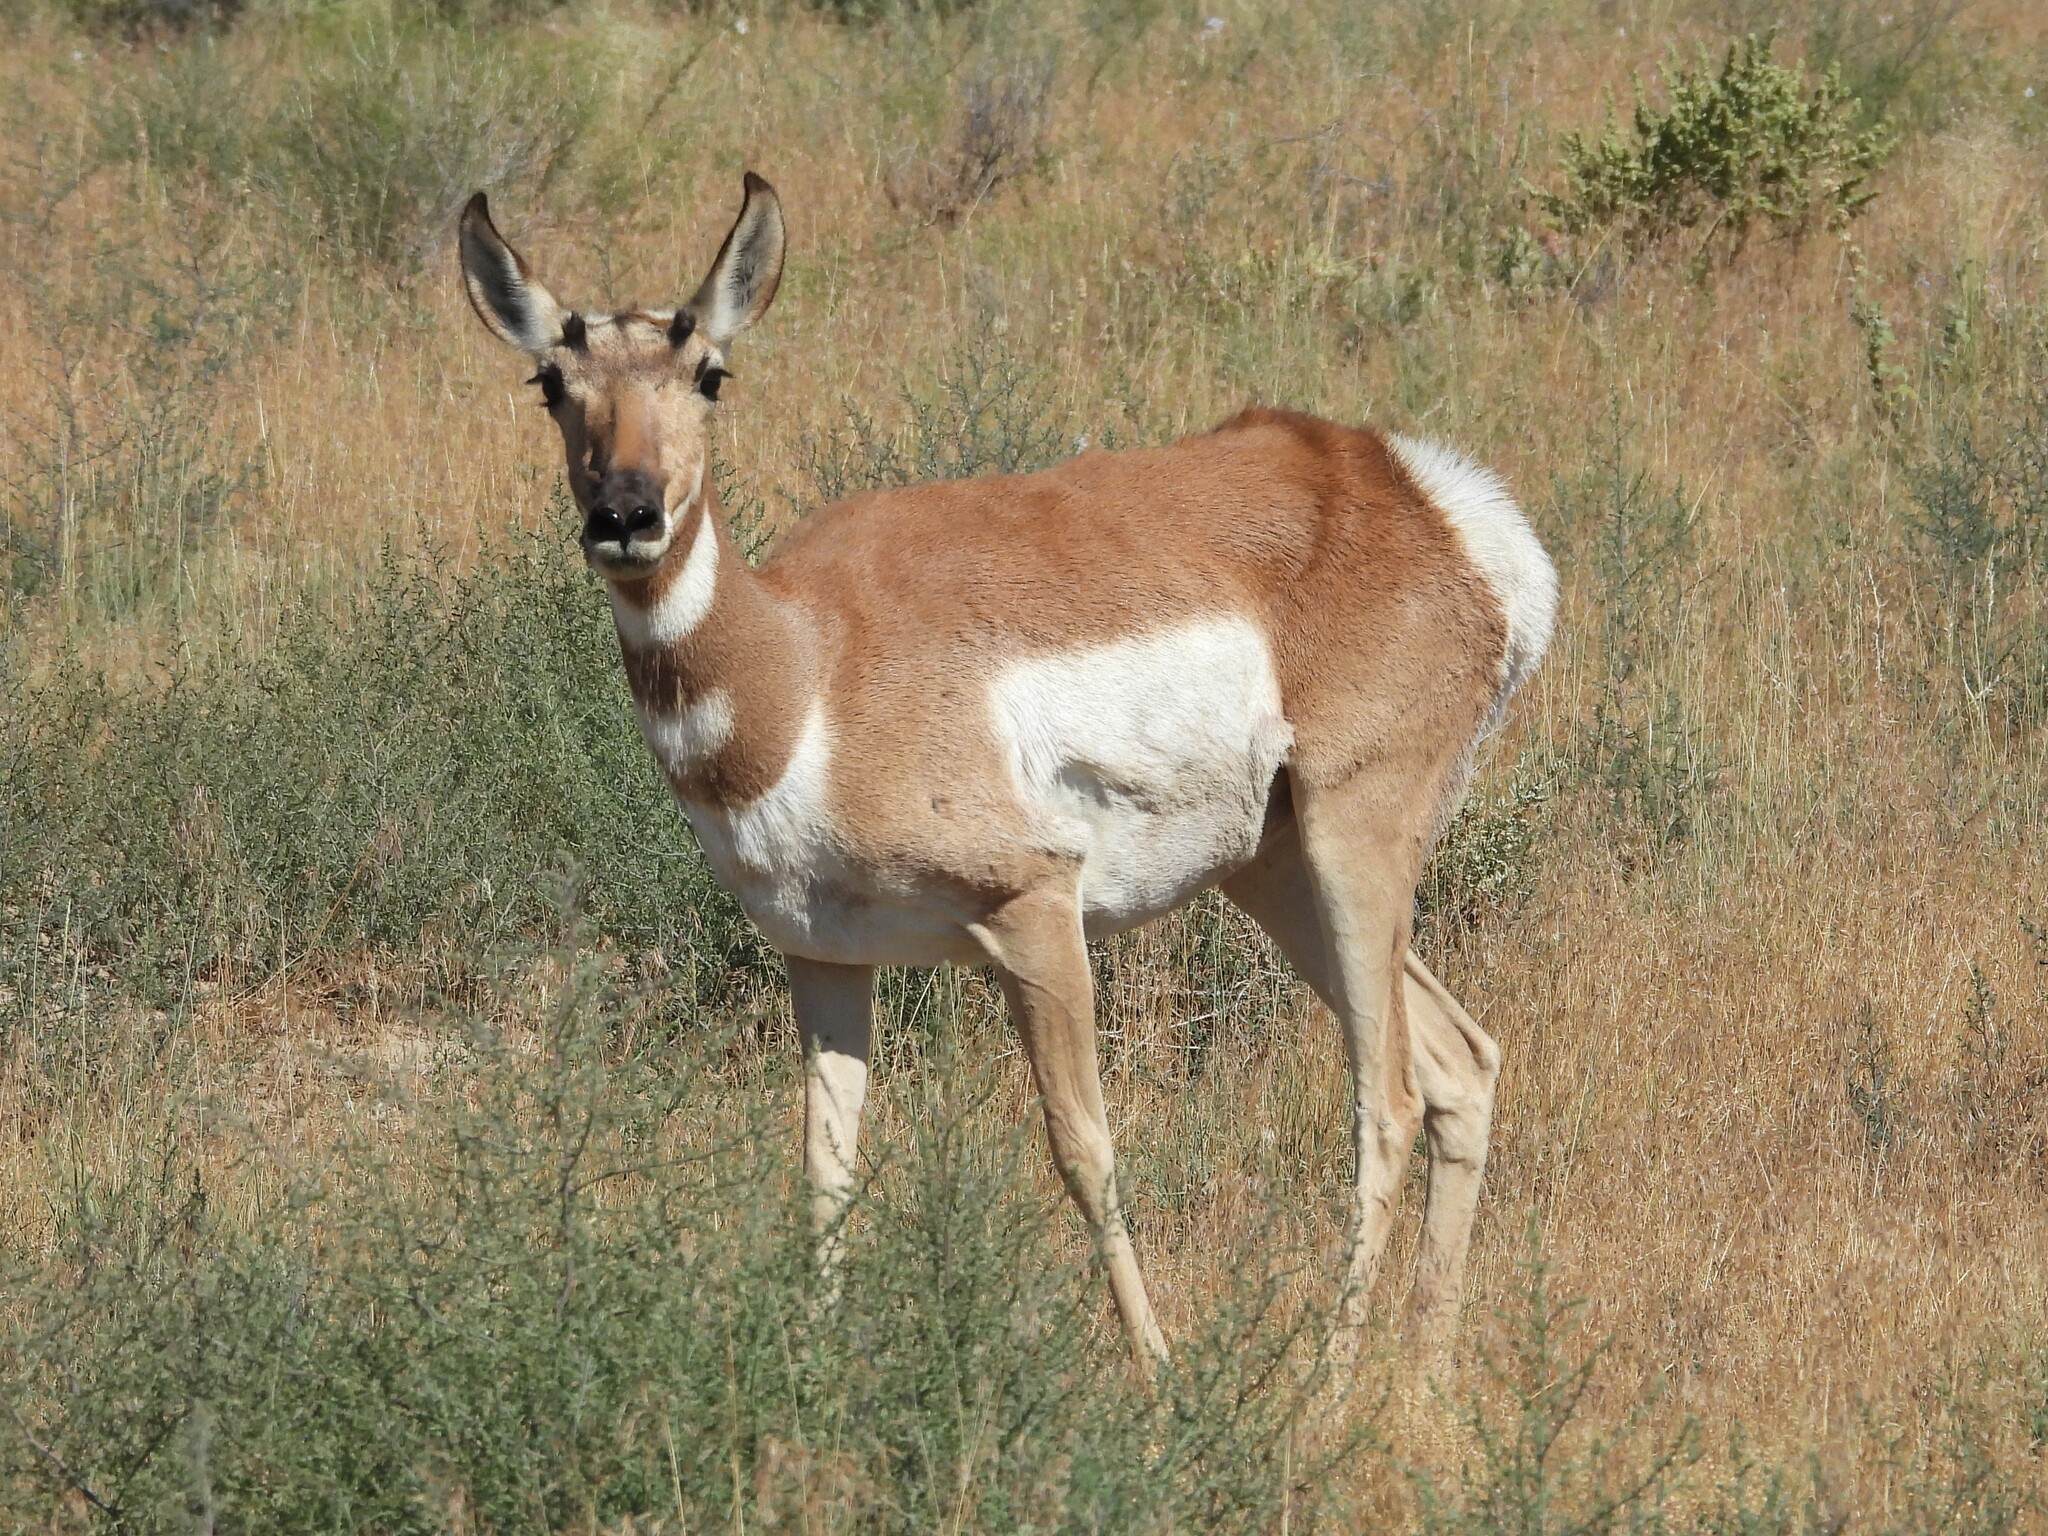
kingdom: Animalia
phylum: Chordata
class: Mammalia
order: Artiodactyla
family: Antilocapridae
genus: Antilocapra
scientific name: Antilocapra americana
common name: Pronghorn
